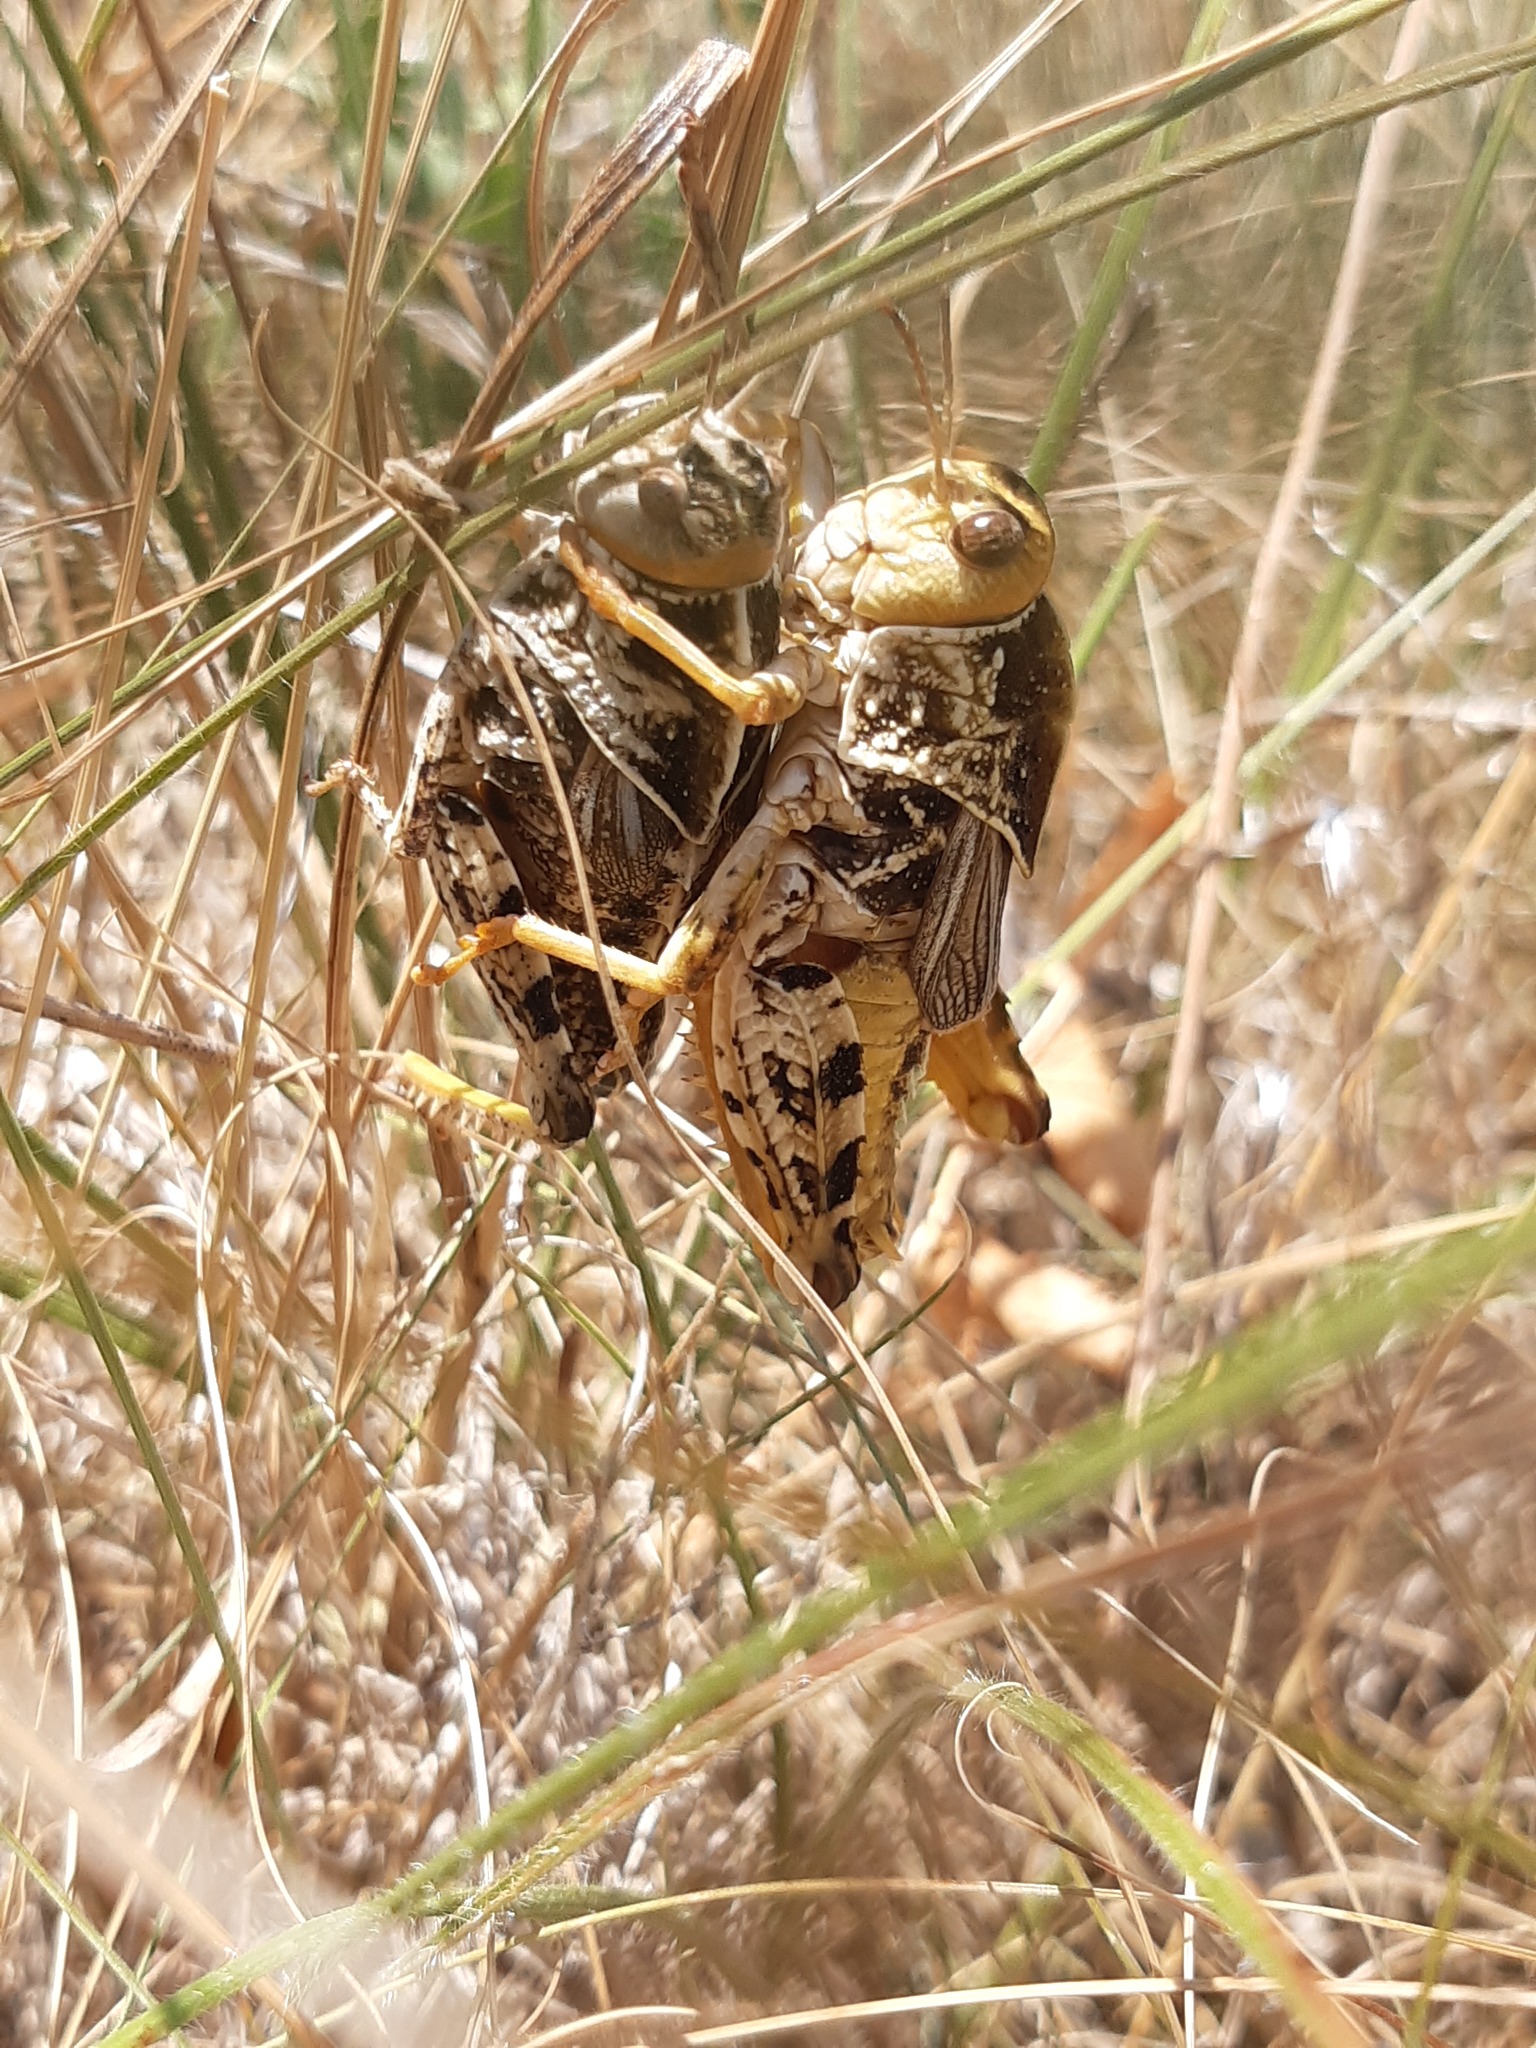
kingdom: Animalia
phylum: Arthropoda
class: Insecta
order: Orthoptera
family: Pamphagidae
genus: Prionotropis
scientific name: Prionotropis hystrix
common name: Eastern stone grasshopper
